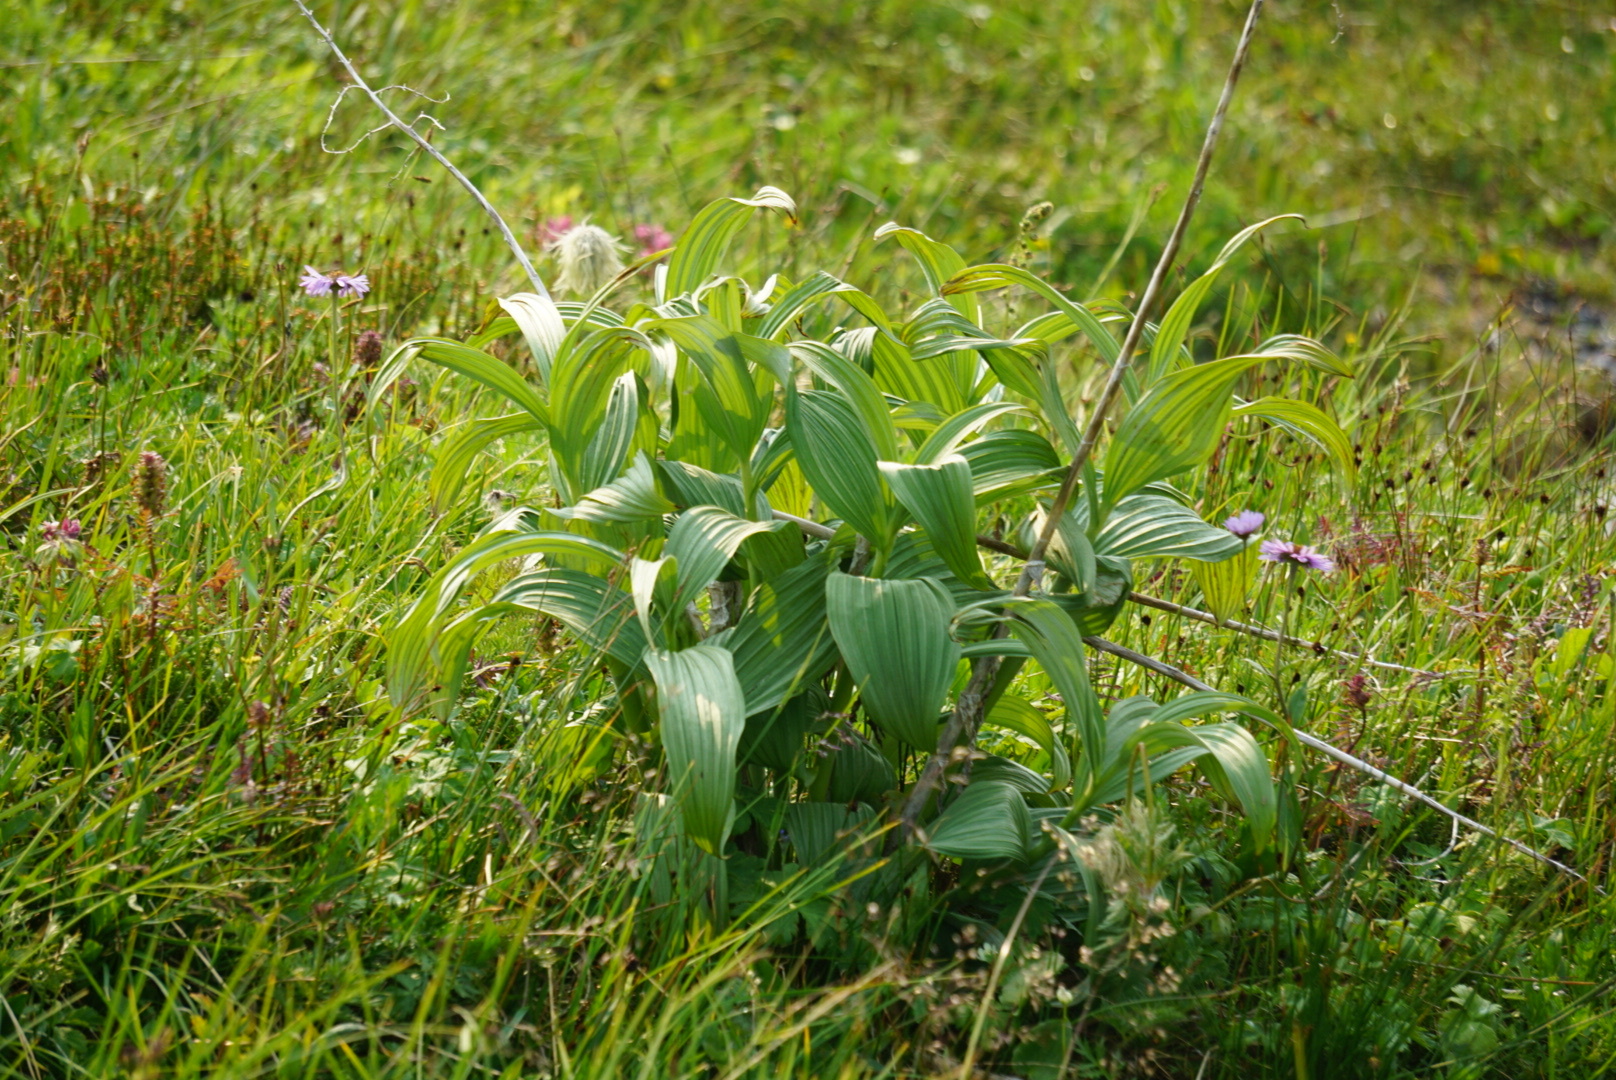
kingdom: Plantae
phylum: Tracheophyta
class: Liliopsida
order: Liliales
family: Melanthiaceae
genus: Veratrum
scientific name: Veratrum viride
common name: American false hellebore
